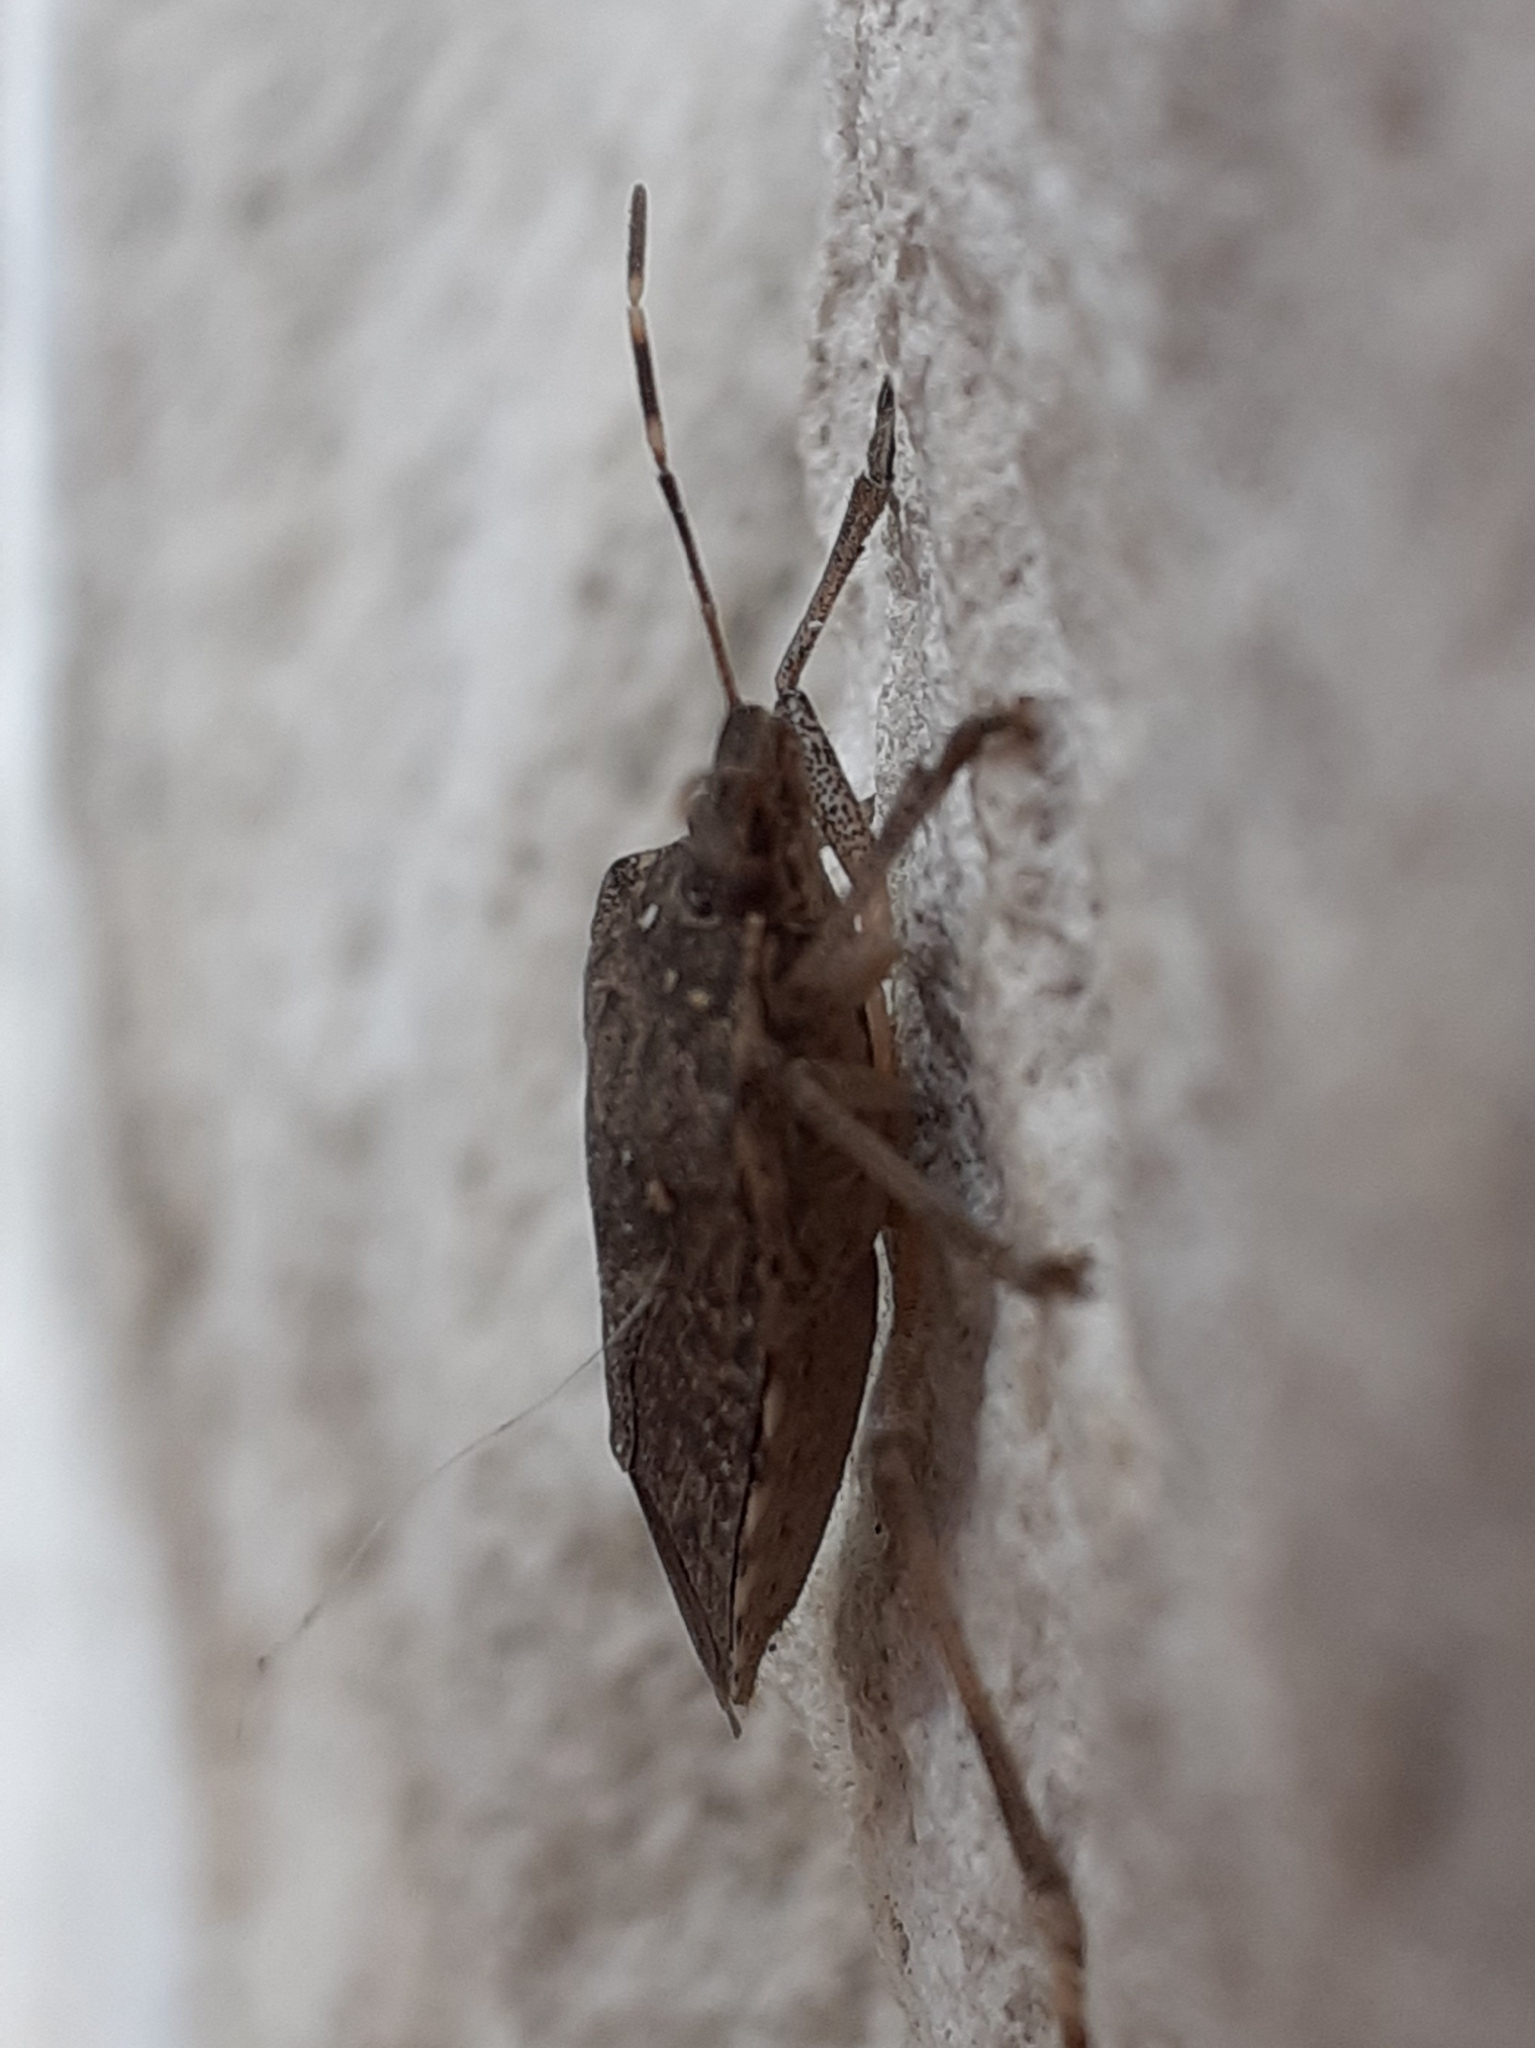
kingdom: Animalia
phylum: Arthropoda
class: Insecta
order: Hemiptera
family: Pentatomidae
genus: Halyomorpha
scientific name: Halyomorpha halys
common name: Brown marmorated stink bug
